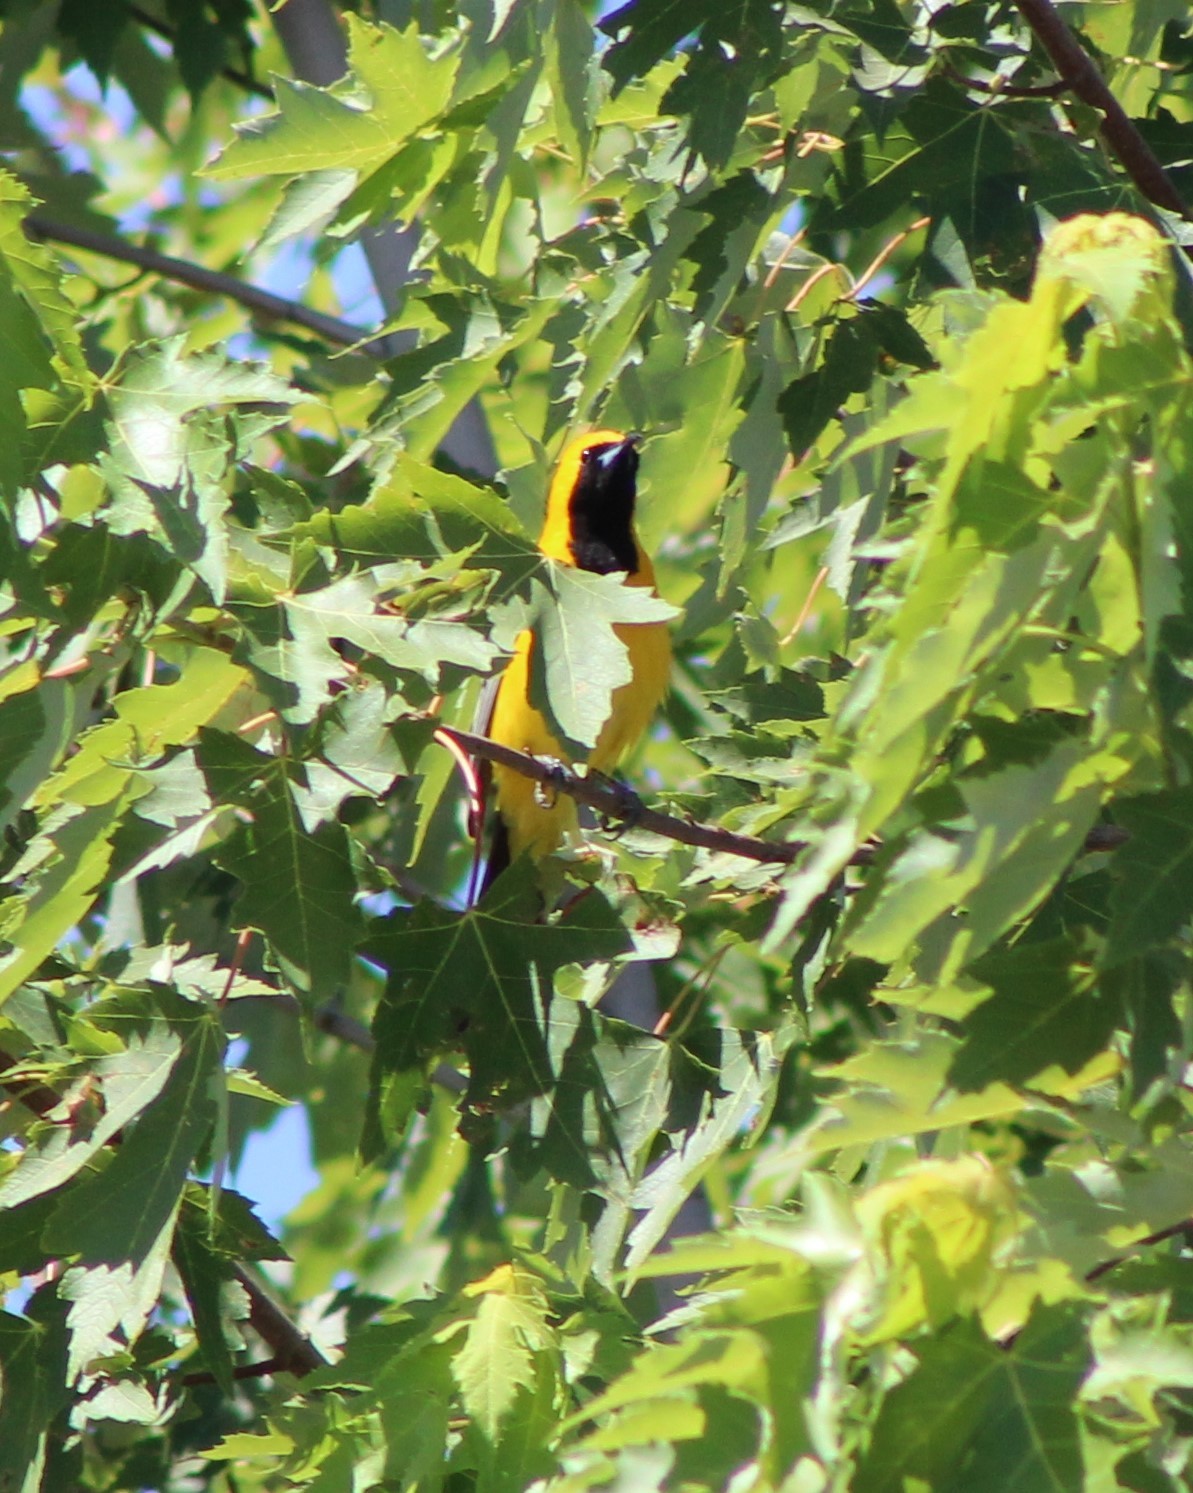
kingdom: Animalia
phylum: Chordata
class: Aves
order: Passeriformes
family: Icteridae
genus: Icterus
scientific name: Icterus cucullatus
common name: Hooded oriole
